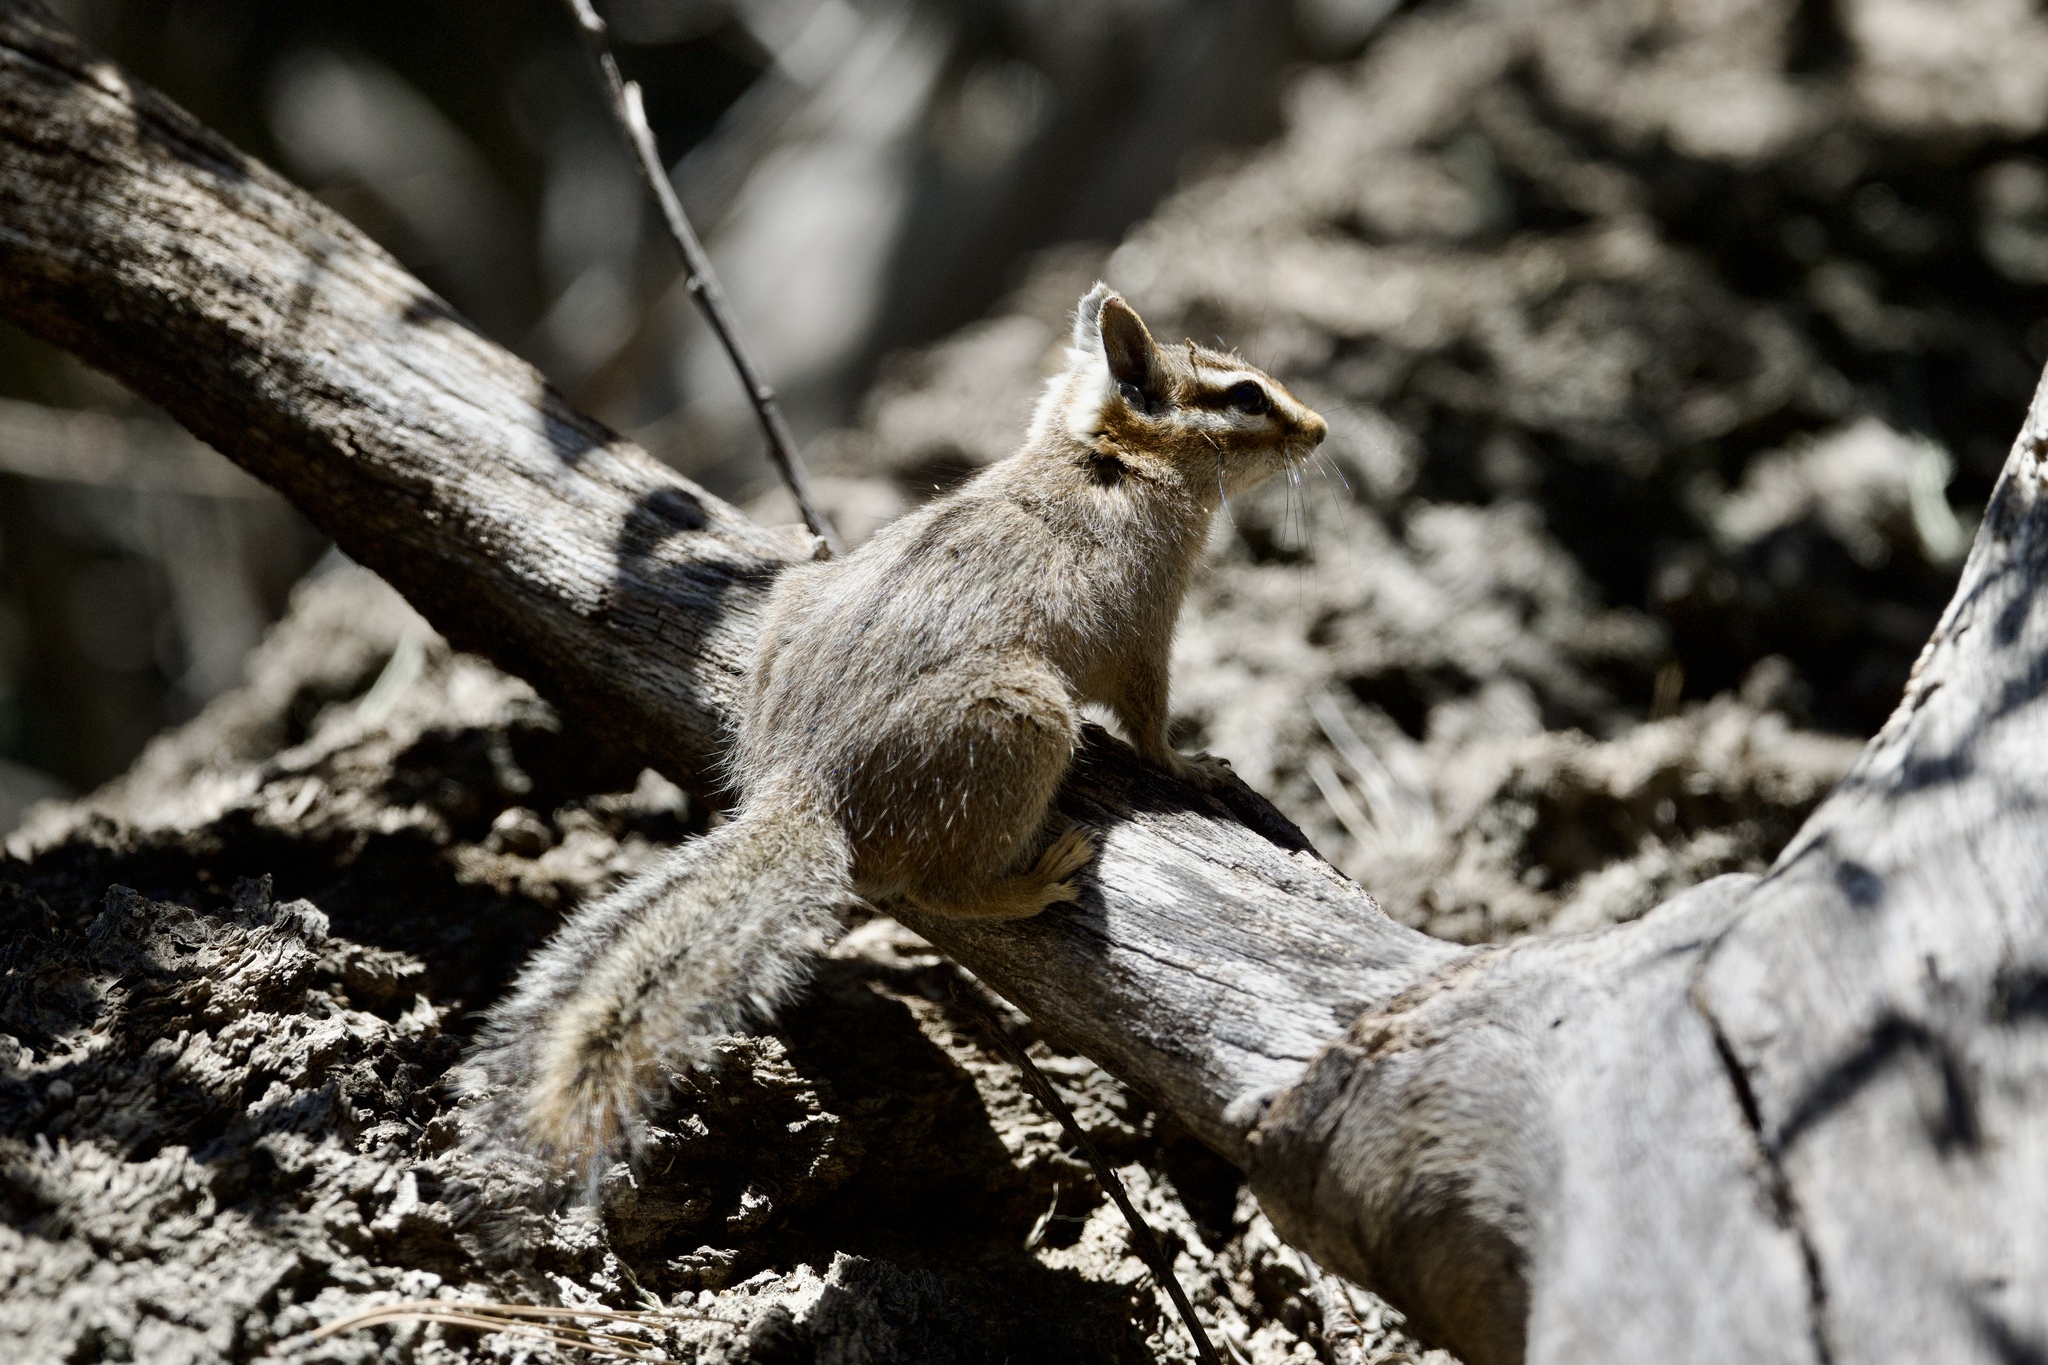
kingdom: Animalia
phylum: Chordata
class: Mammalia
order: Rodentia
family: Sciuridae
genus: Tamias
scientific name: Tamias dorsalis
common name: Cliff chipmunk
